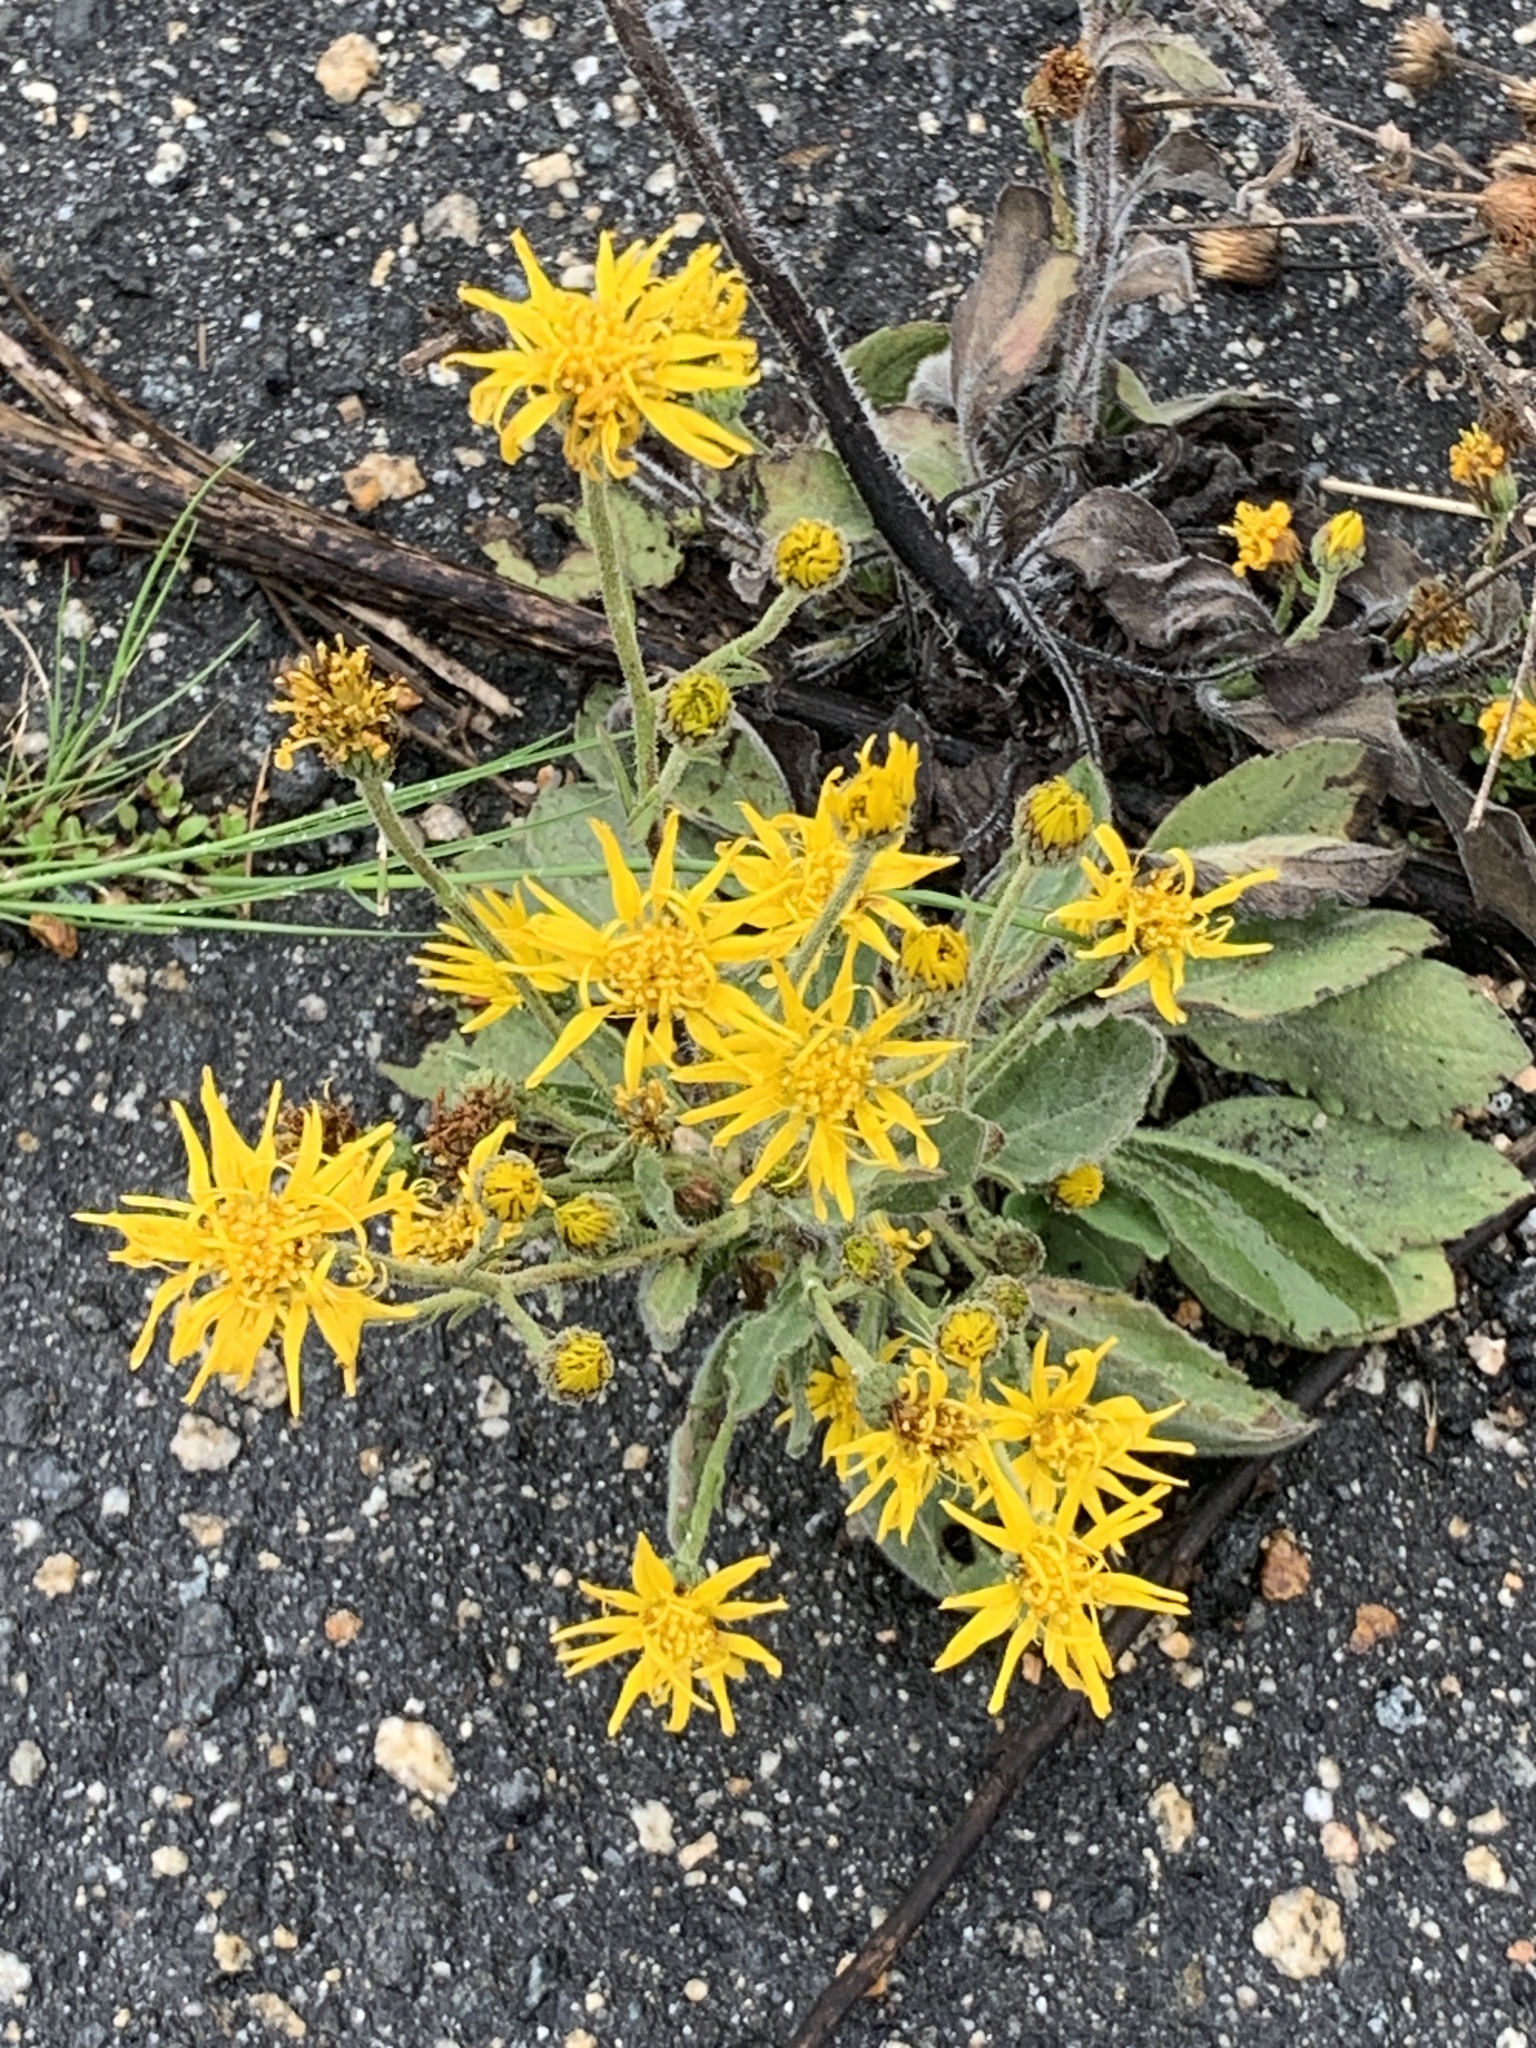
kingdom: Plantae
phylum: Tracheophyta
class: Magnoliopsida
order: Asterales
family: Asteraceae
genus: Heterotheca
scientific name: Heterotheca grandiflora
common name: Telegraphweed
